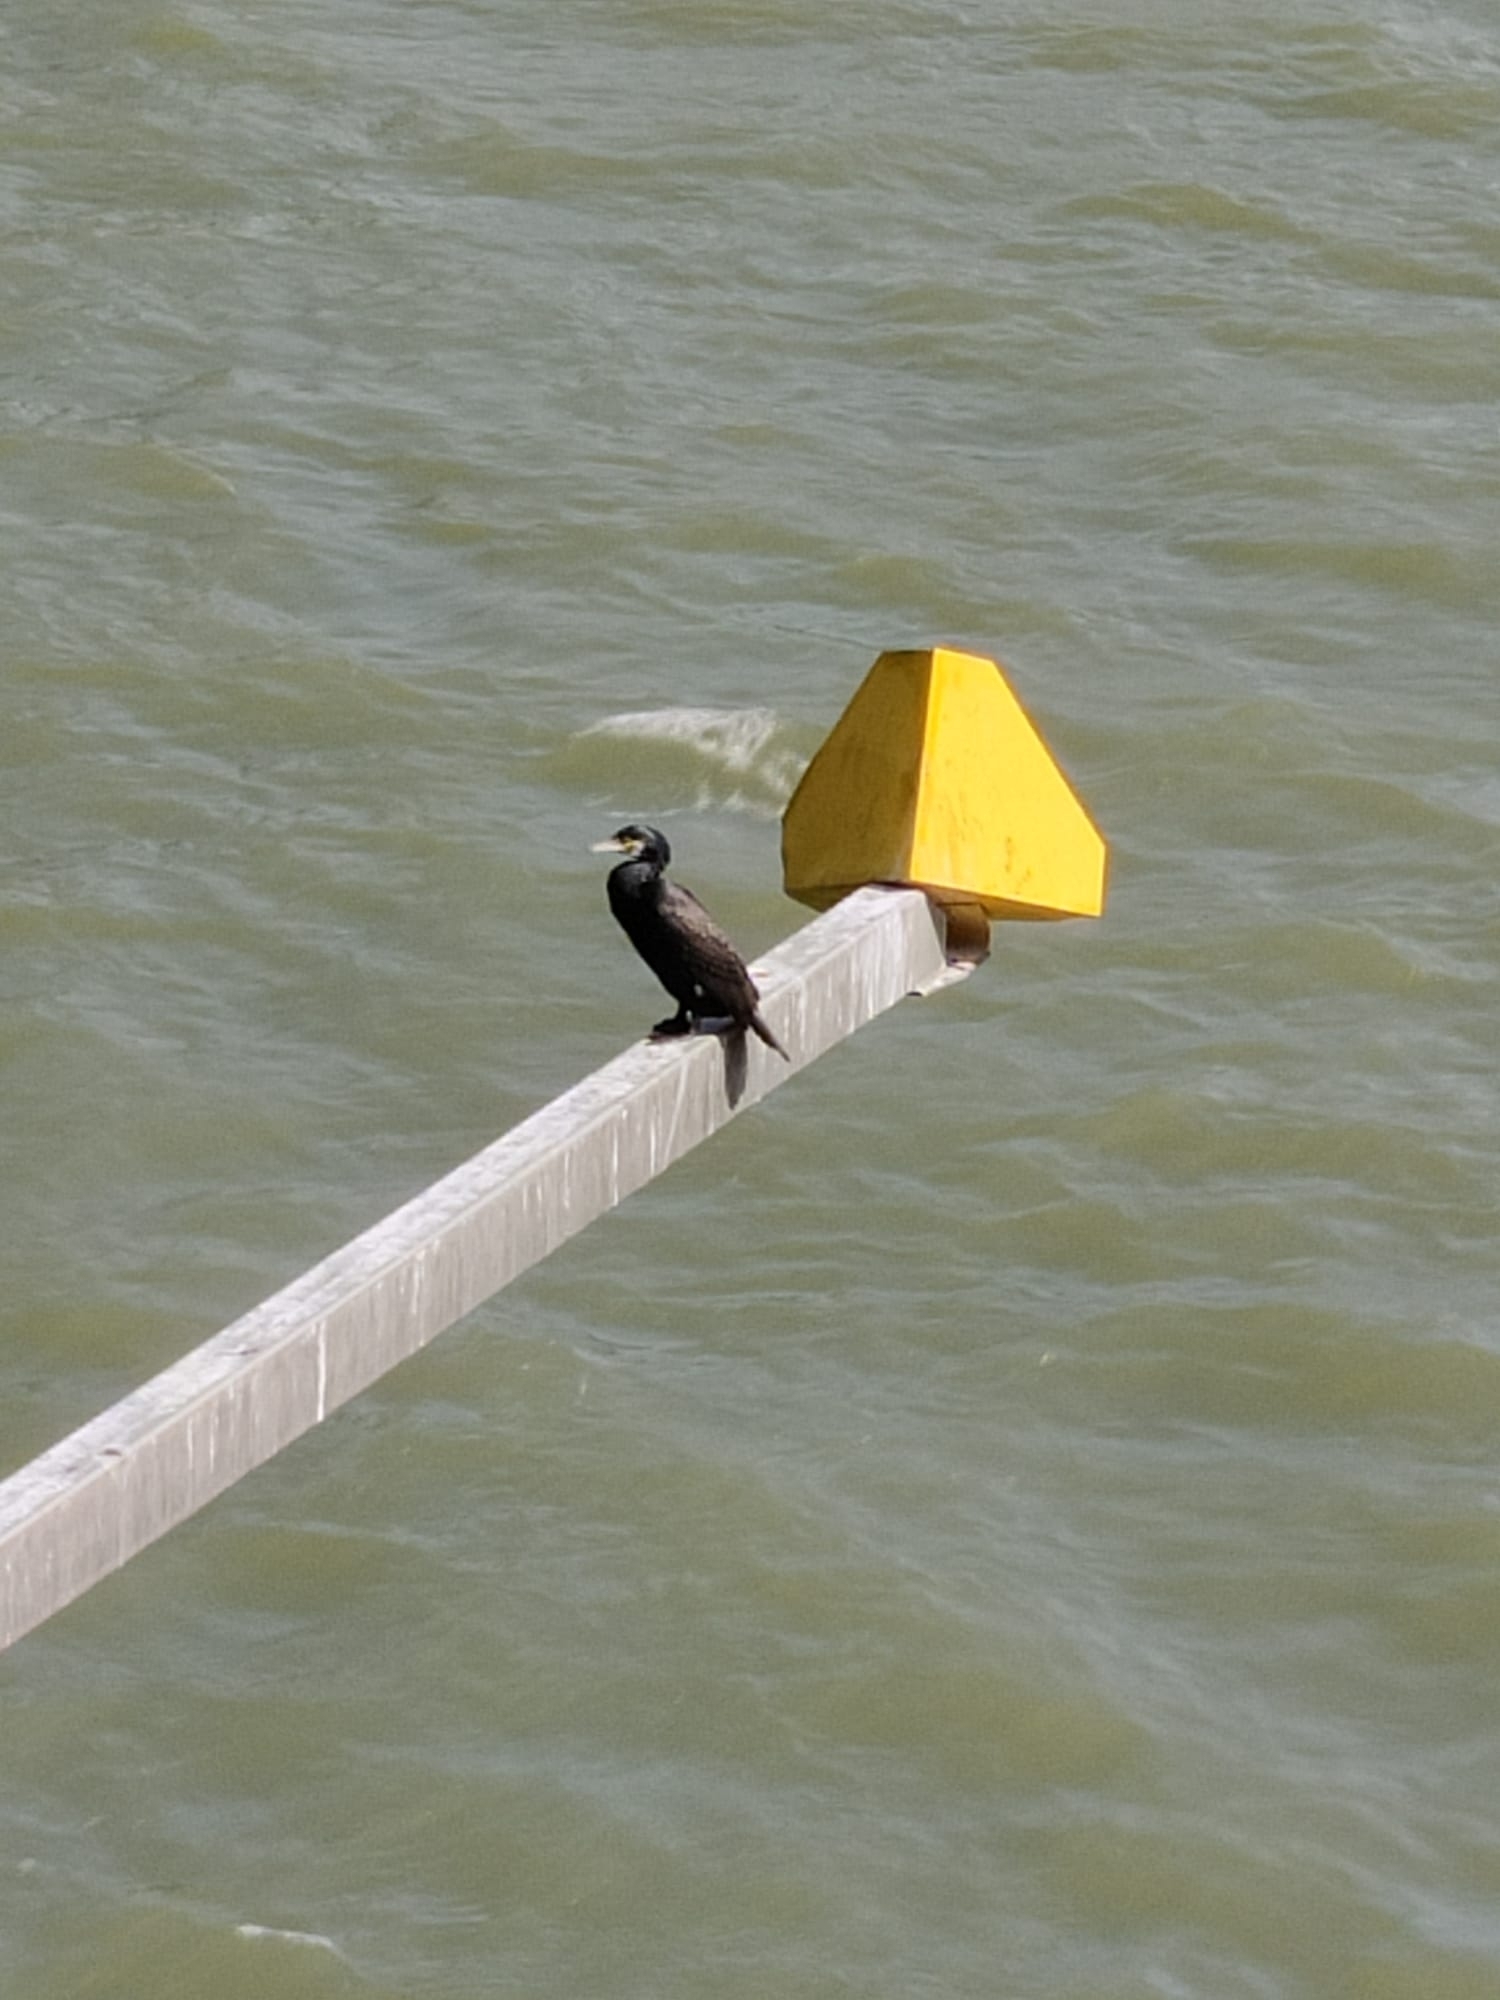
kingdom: Animalia
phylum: Chordata
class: Aves
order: Suliformes
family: Phalacrocoracidae
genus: Phalacrocorax
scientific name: Phalacrocorax carbo
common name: Great cormorant
